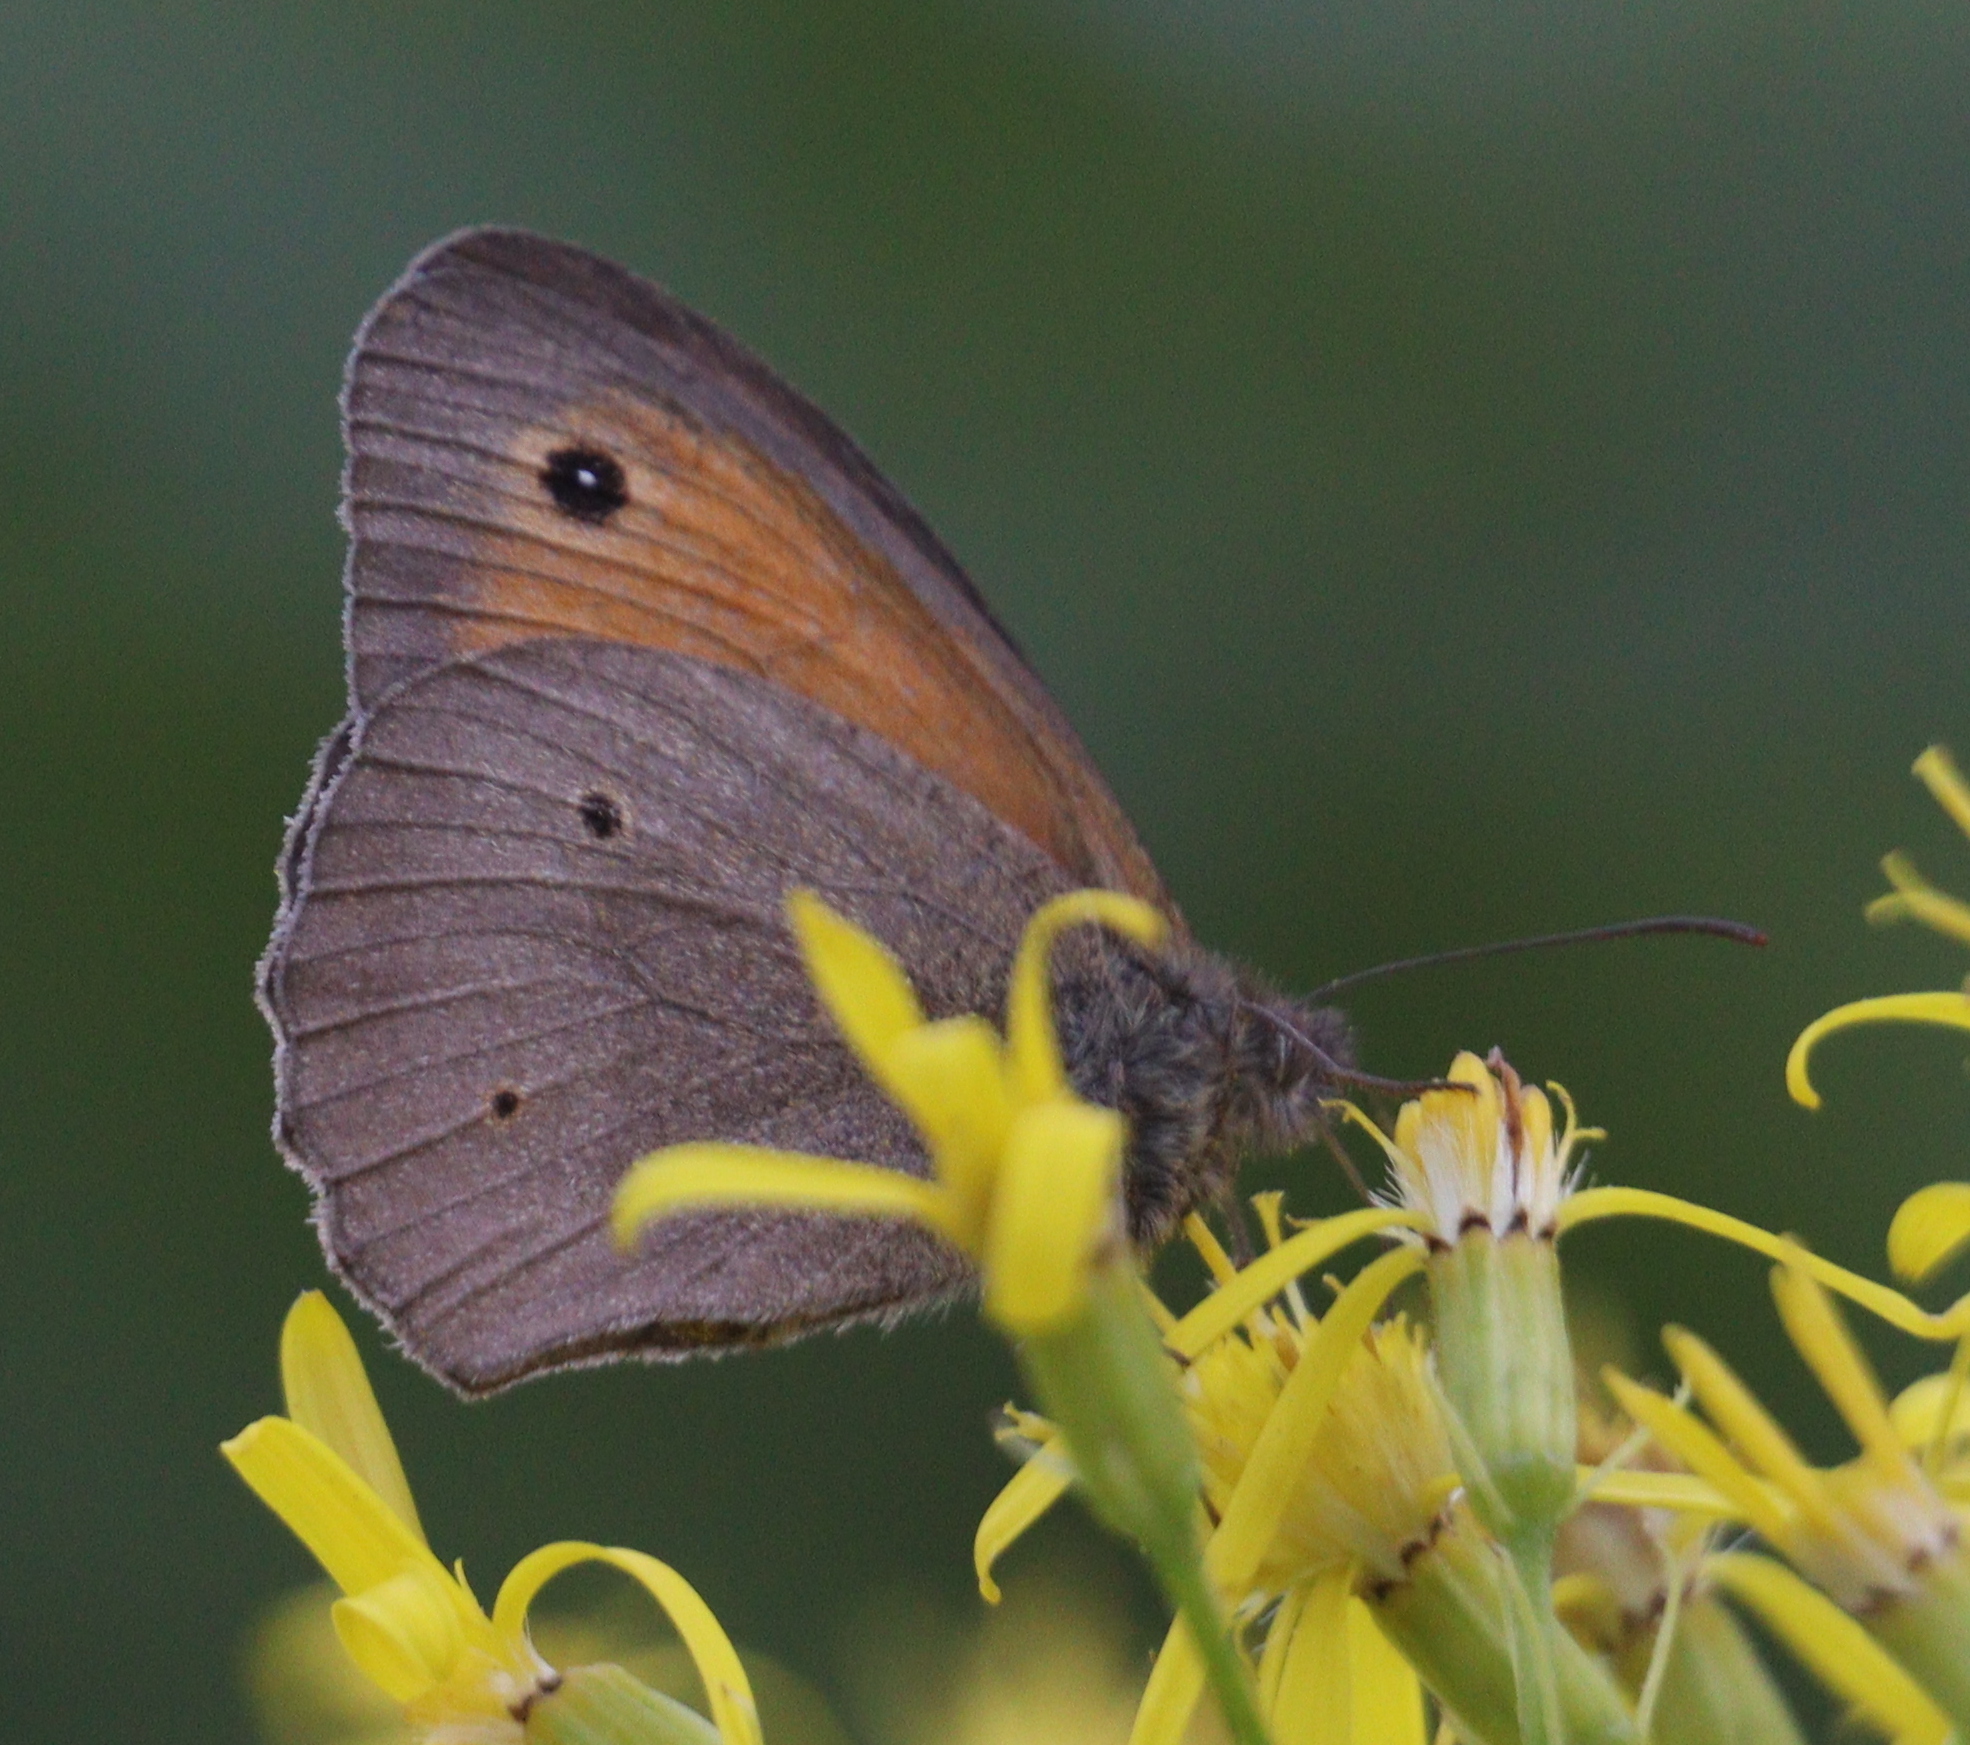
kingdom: Animalia
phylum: Arthropoda
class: Insecta
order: Lepidoptera
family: Nymphalidae
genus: Maniola
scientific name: Maniola jurtina
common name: Meadow brown
